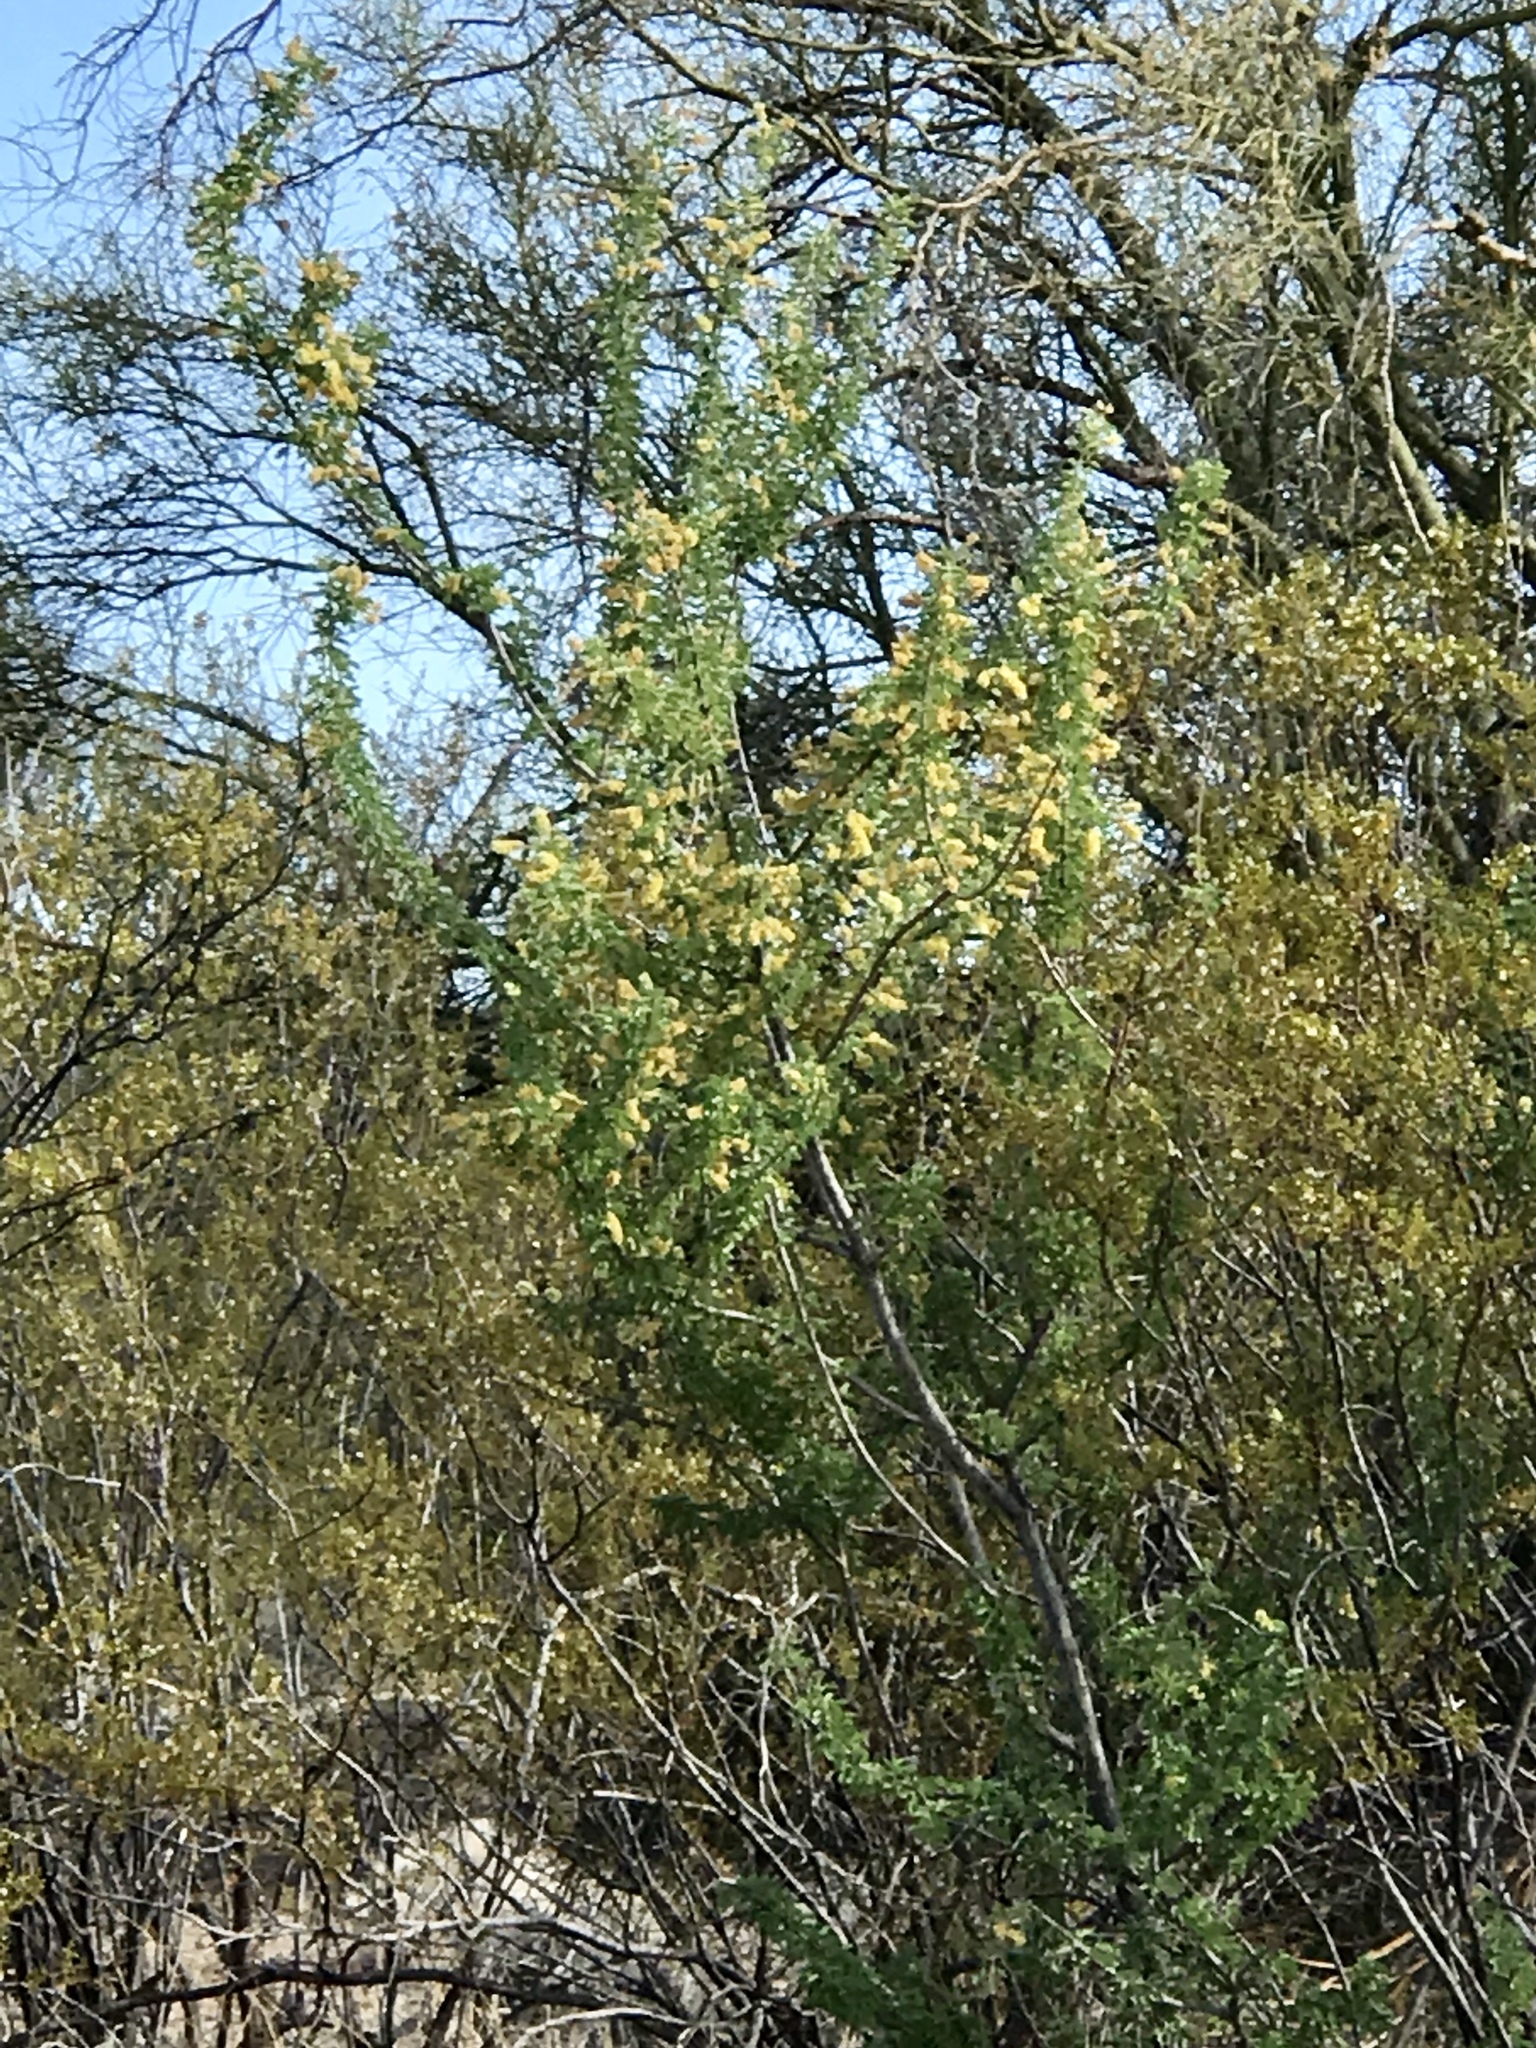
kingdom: Plantae
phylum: Tracheophyta
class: Magnoliopsida
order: Fabales
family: Fabaceae
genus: Senegalia
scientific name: Senegalia greggii
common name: Texas-mimosa
